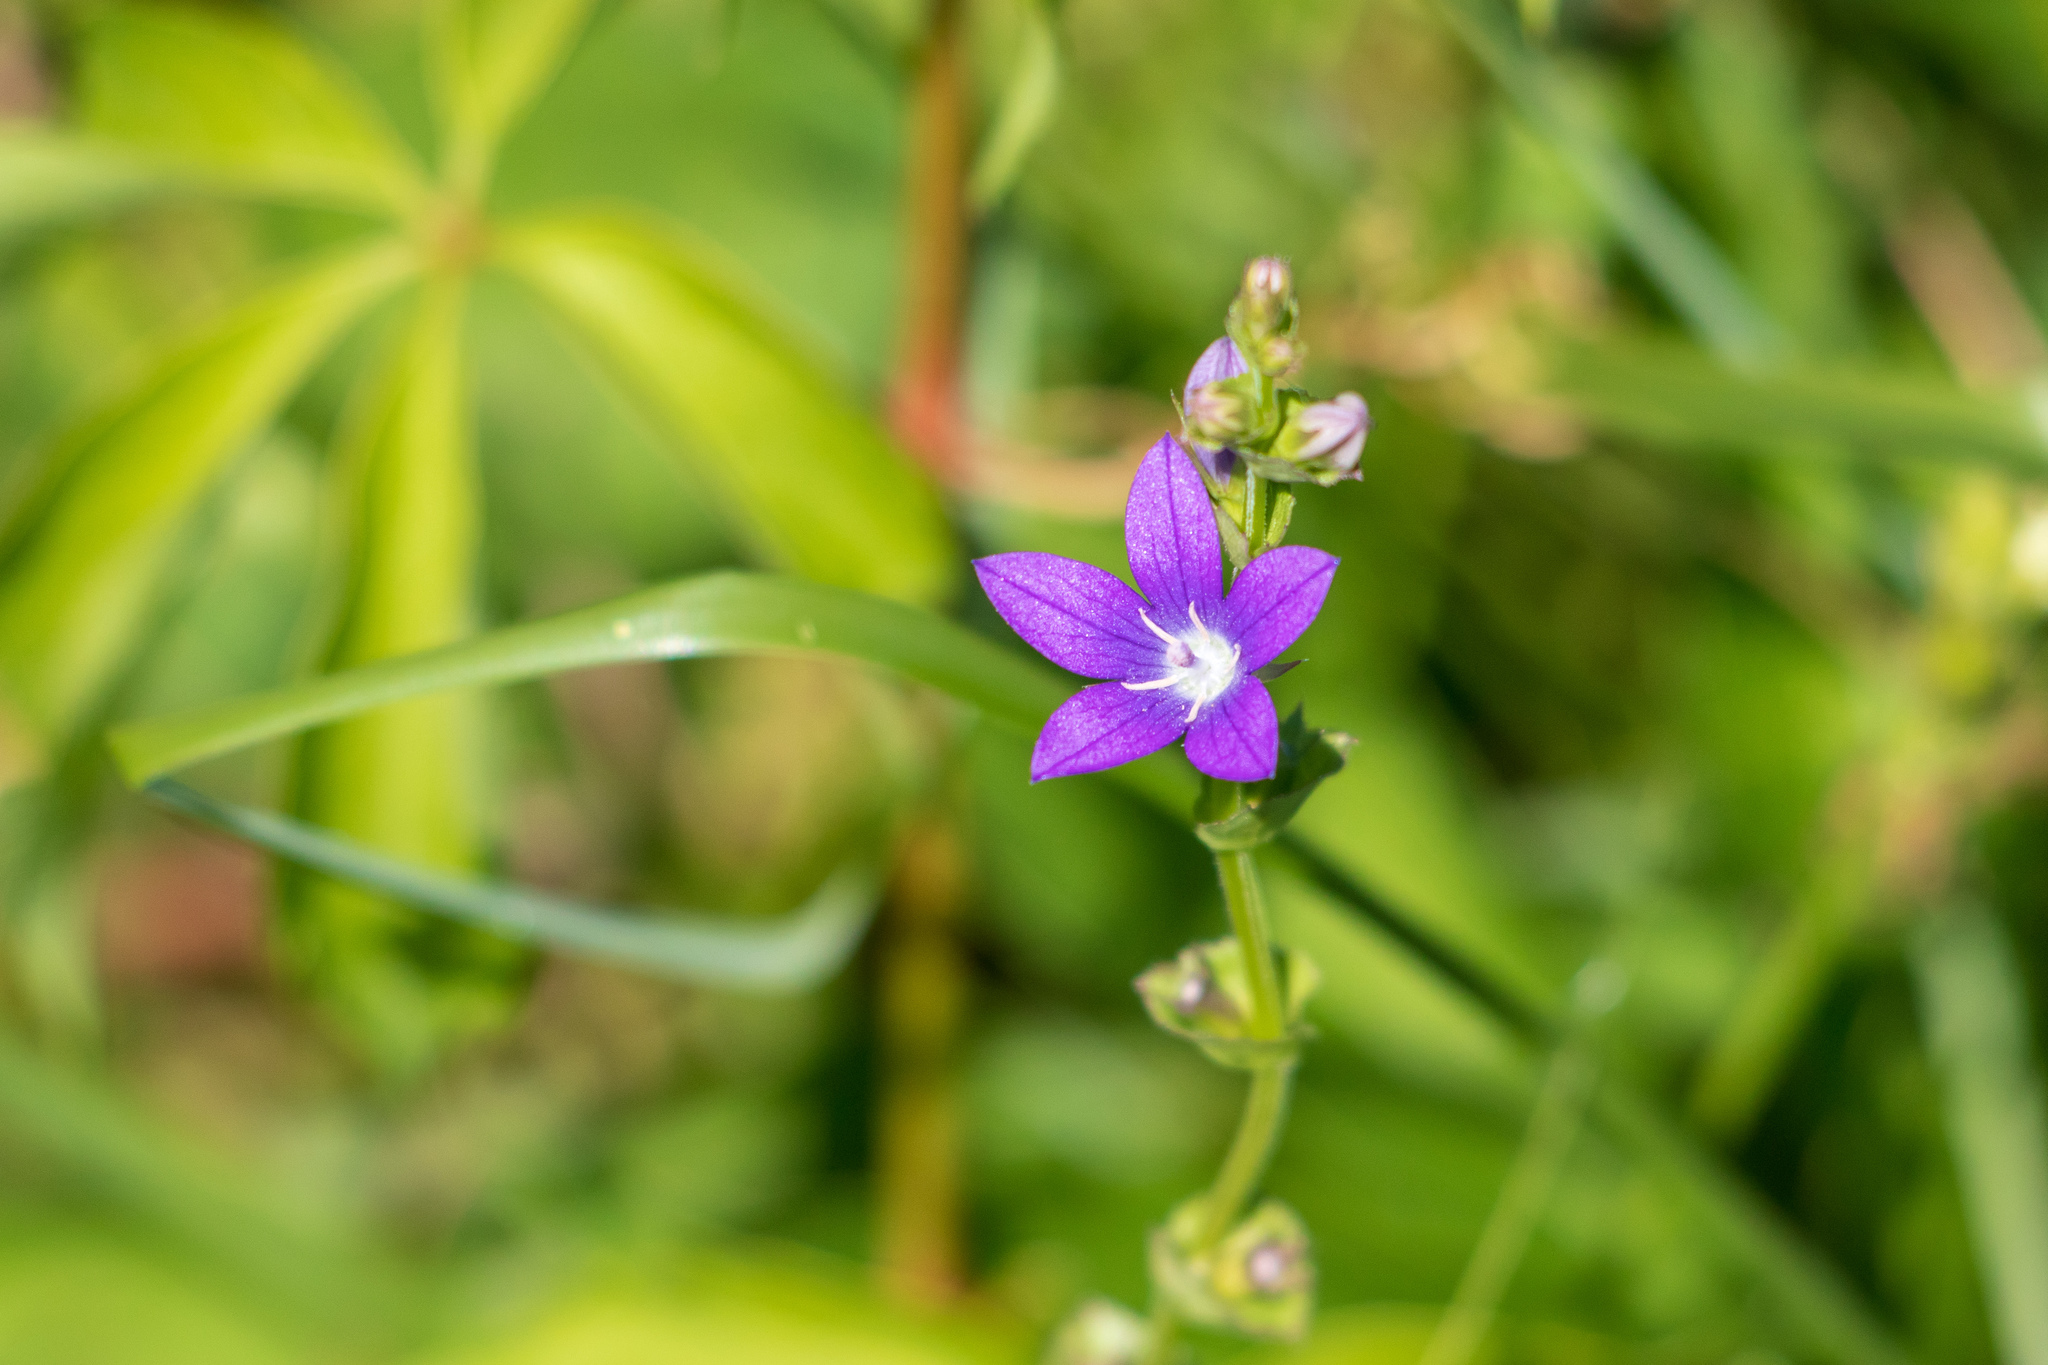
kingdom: Plantae
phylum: Tracheophyta
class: Magnoliopsida
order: Asterales
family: Campanulaceae
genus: Triodanis
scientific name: Triodanis perfoliata
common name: Clasping venus' looking-glass
